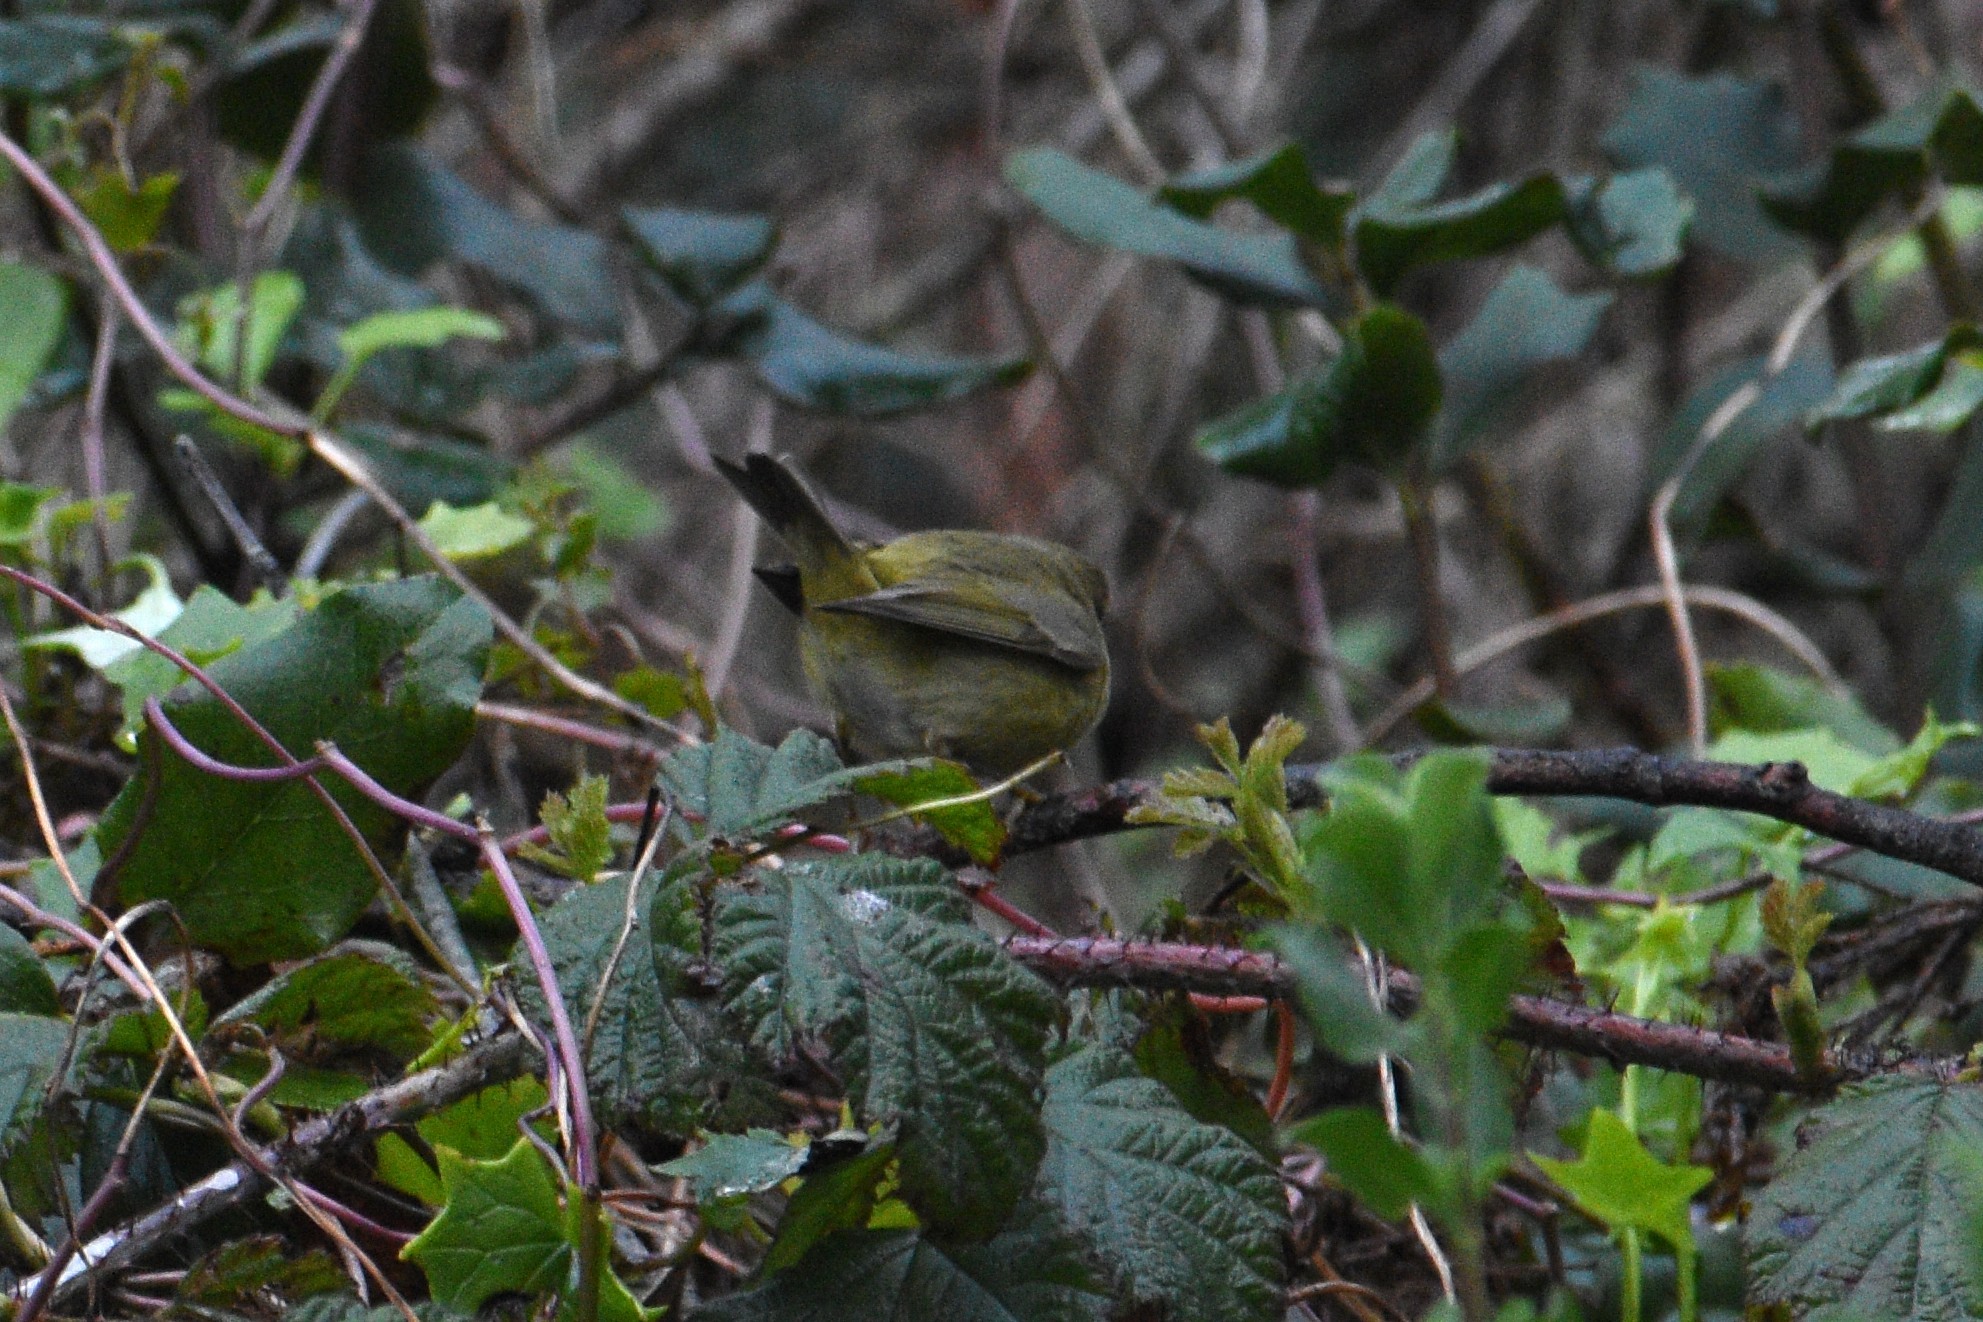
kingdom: Animalia
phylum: Chordata
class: Aves
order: Passeriformes
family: Parulidae
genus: Leiothlypis
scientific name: Leiothlypis celata
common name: Orange-crowned warbler
